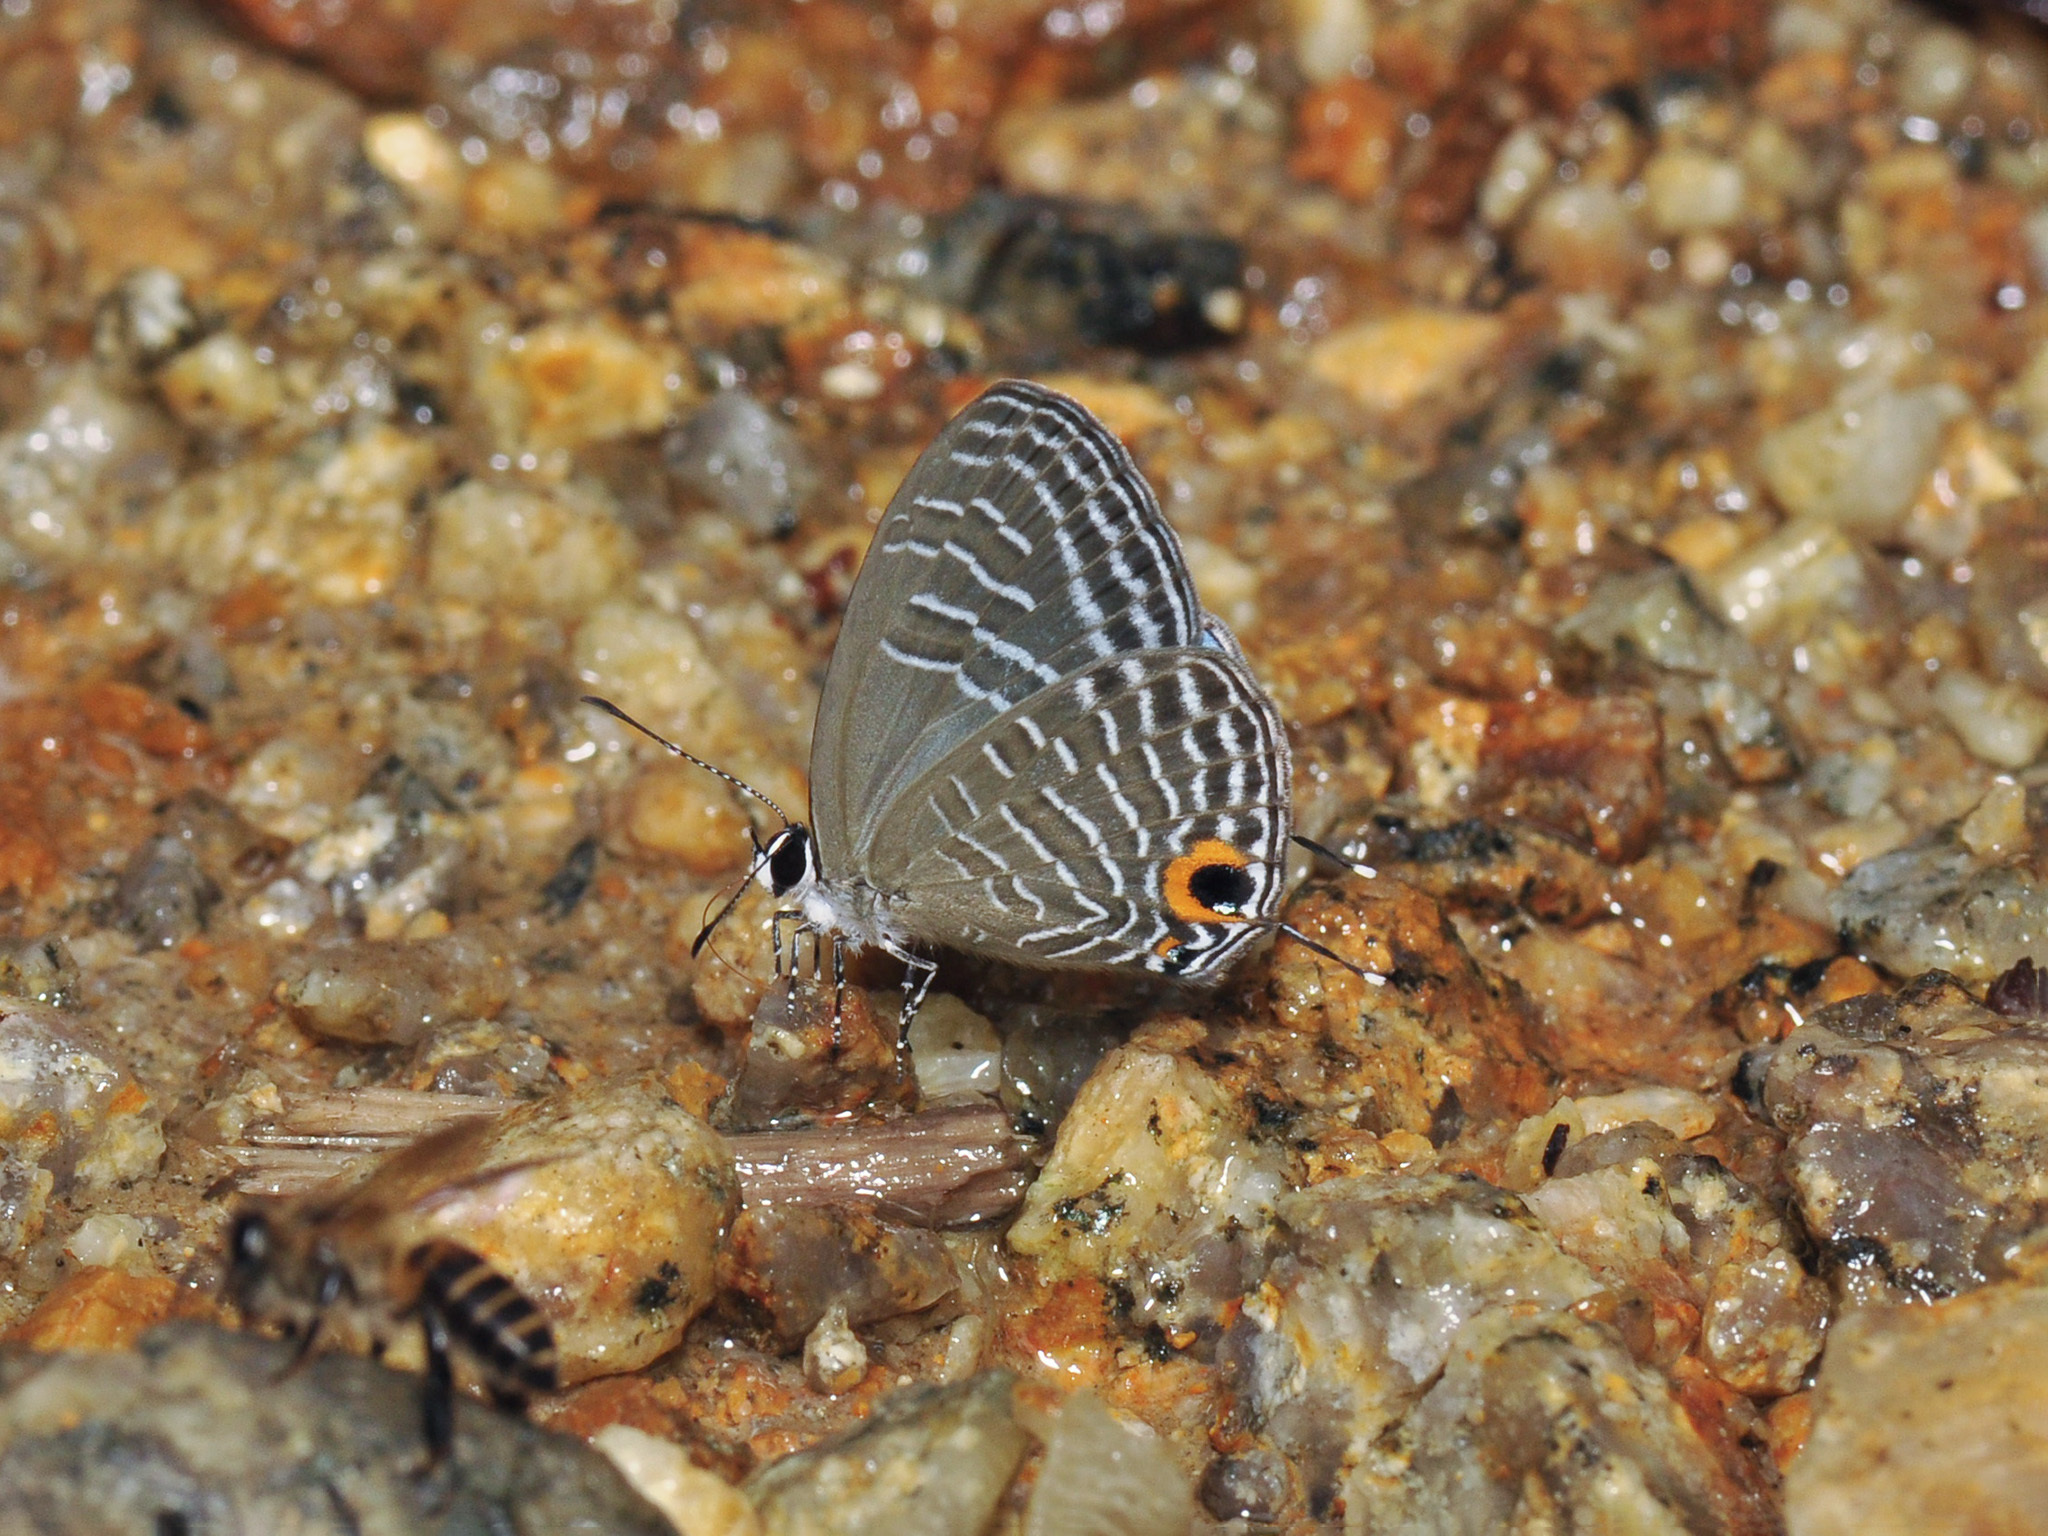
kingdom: Animalia
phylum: Arthropoda
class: Insecta
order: Lepidoptera
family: Lycaenidae
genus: Jamides
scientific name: Jamides elpis
